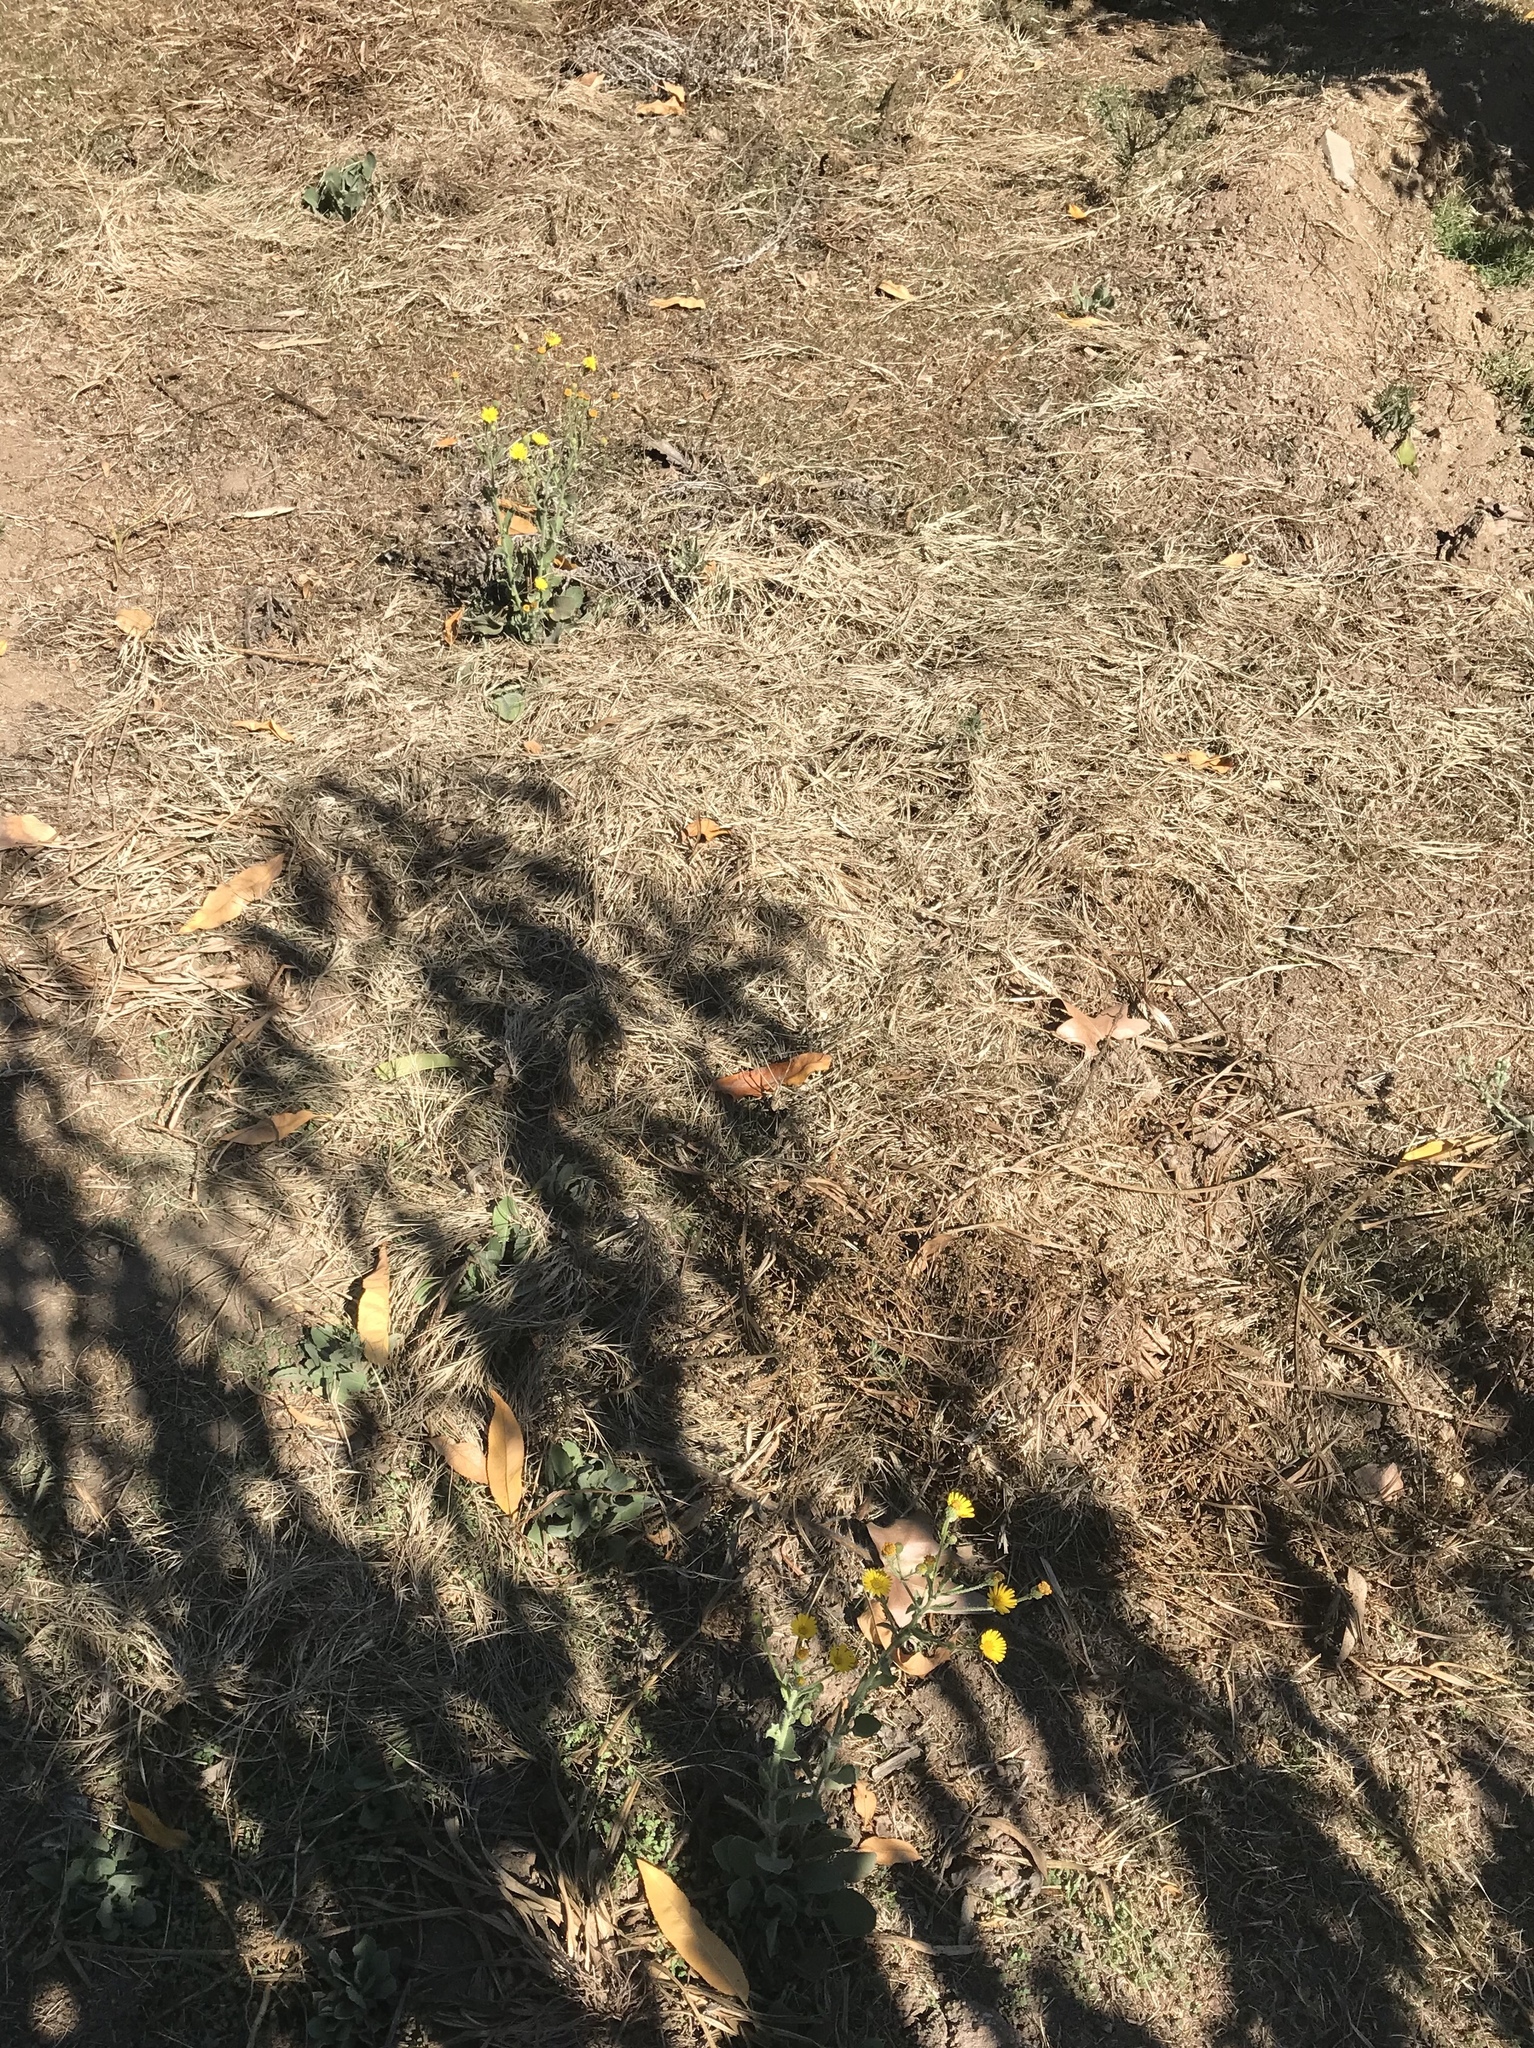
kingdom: Plantae
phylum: Tracheophyta
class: Magnoliopsida
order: Asterales
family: Asteraceae
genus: Heterotheca
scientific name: Heterotheca grandiflora
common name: Telegraphweed
